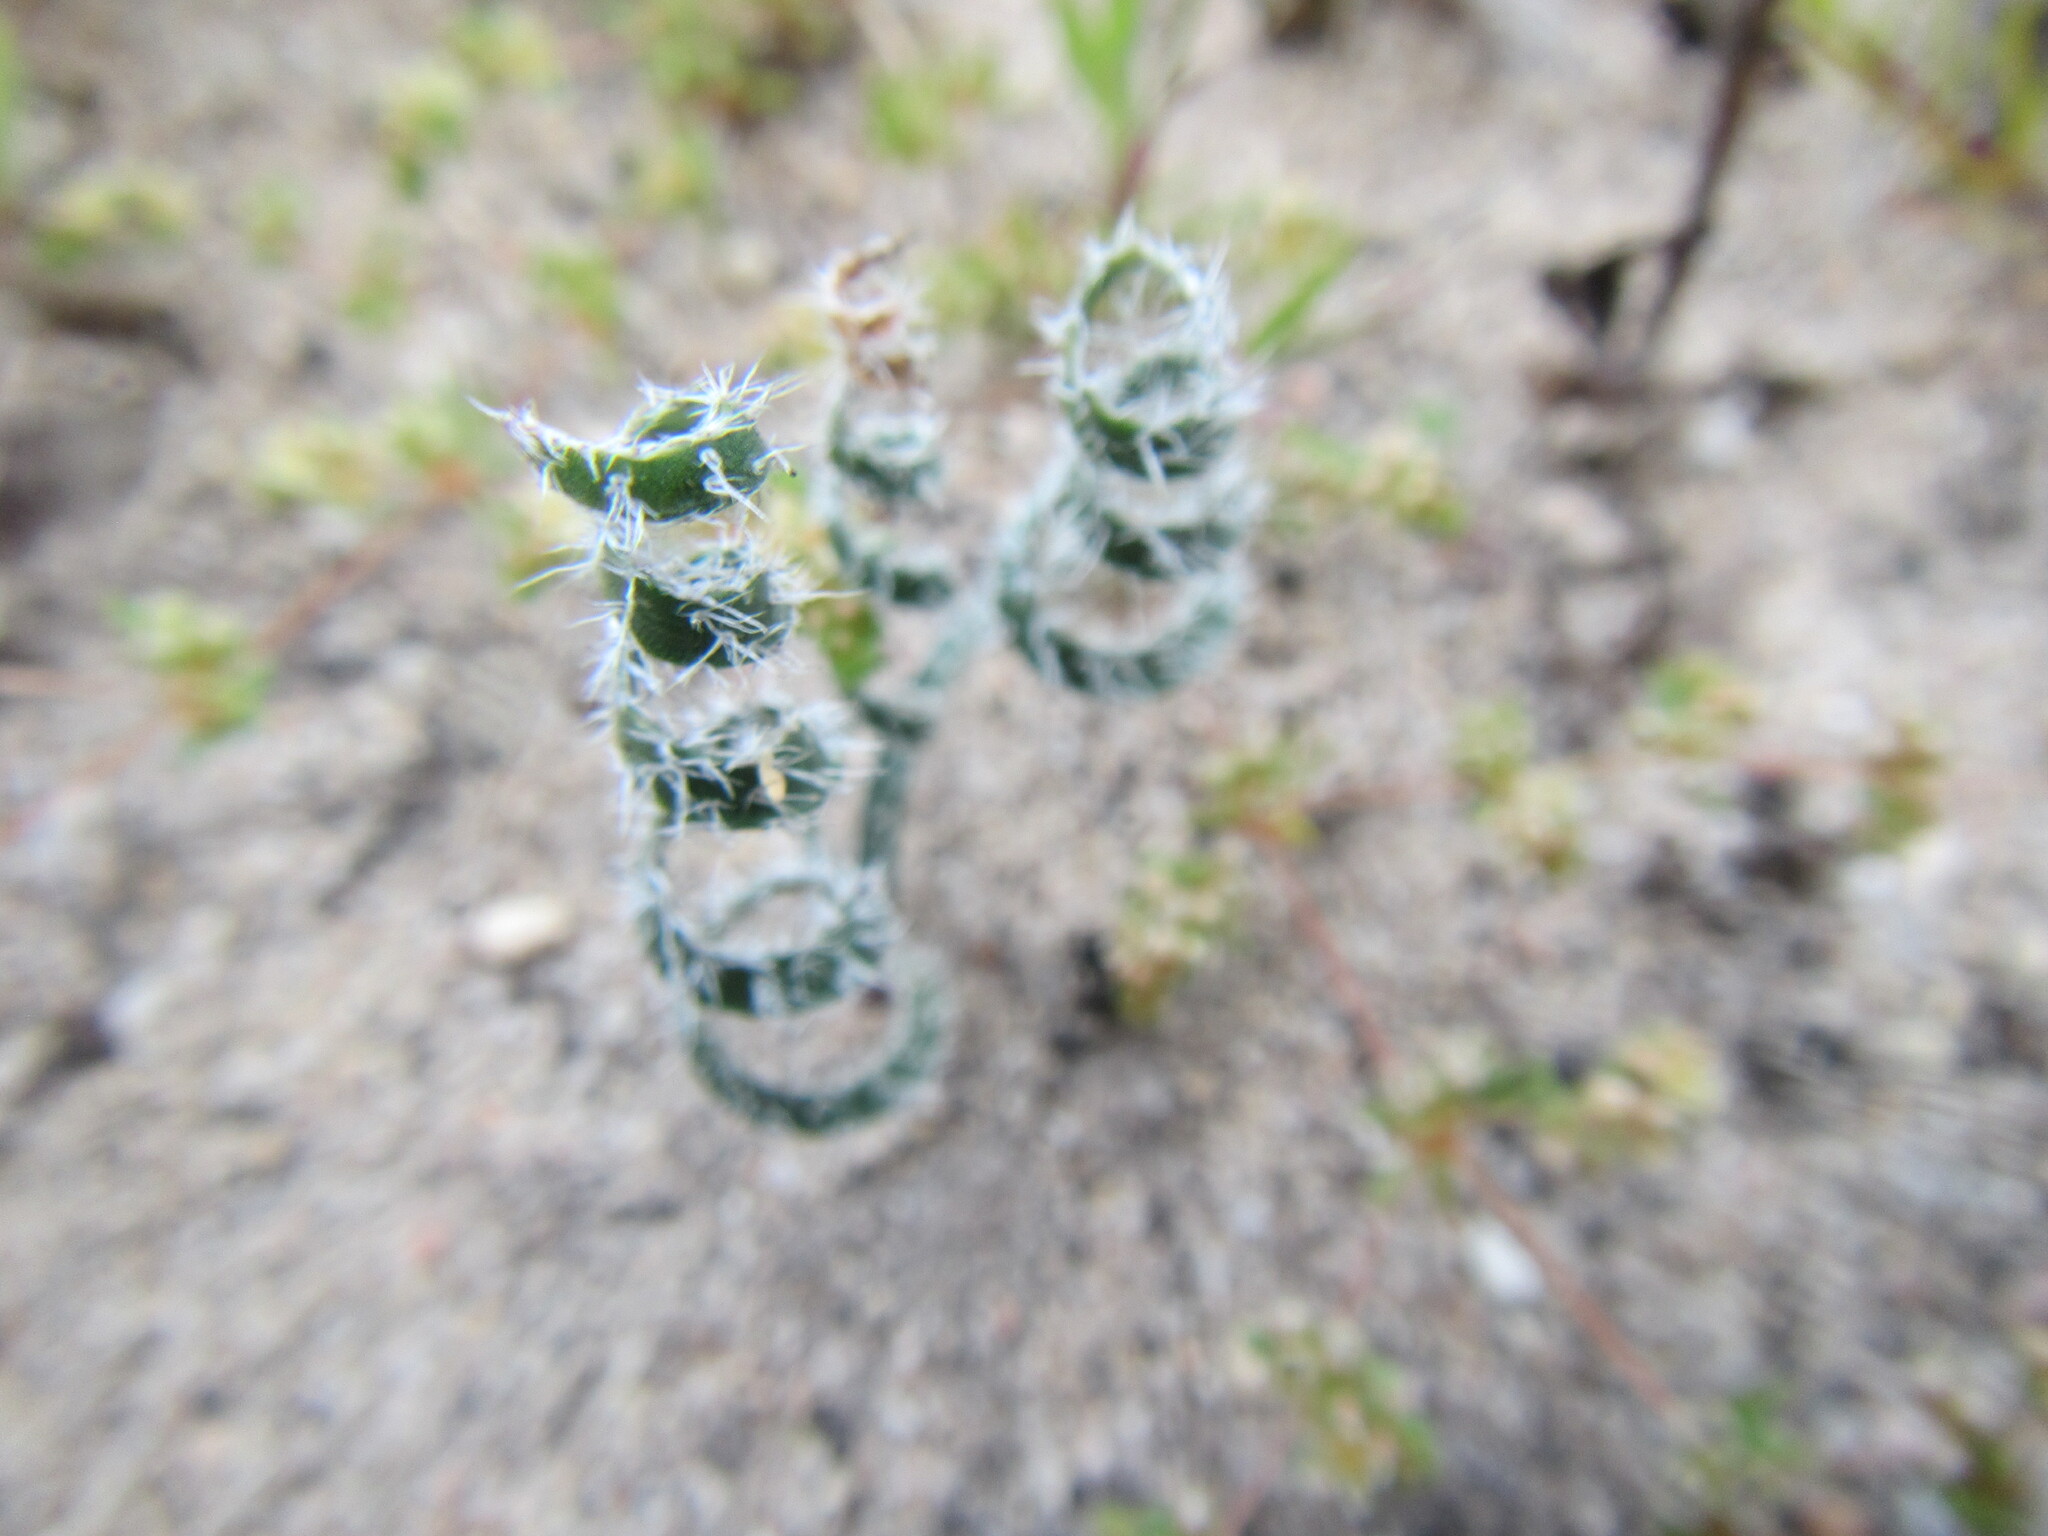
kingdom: Plantae
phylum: Tracheophyta
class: Liliopsida
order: Asparagales
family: Amaryllidaceae
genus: Gethyllis
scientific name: Gethyllis villosa
